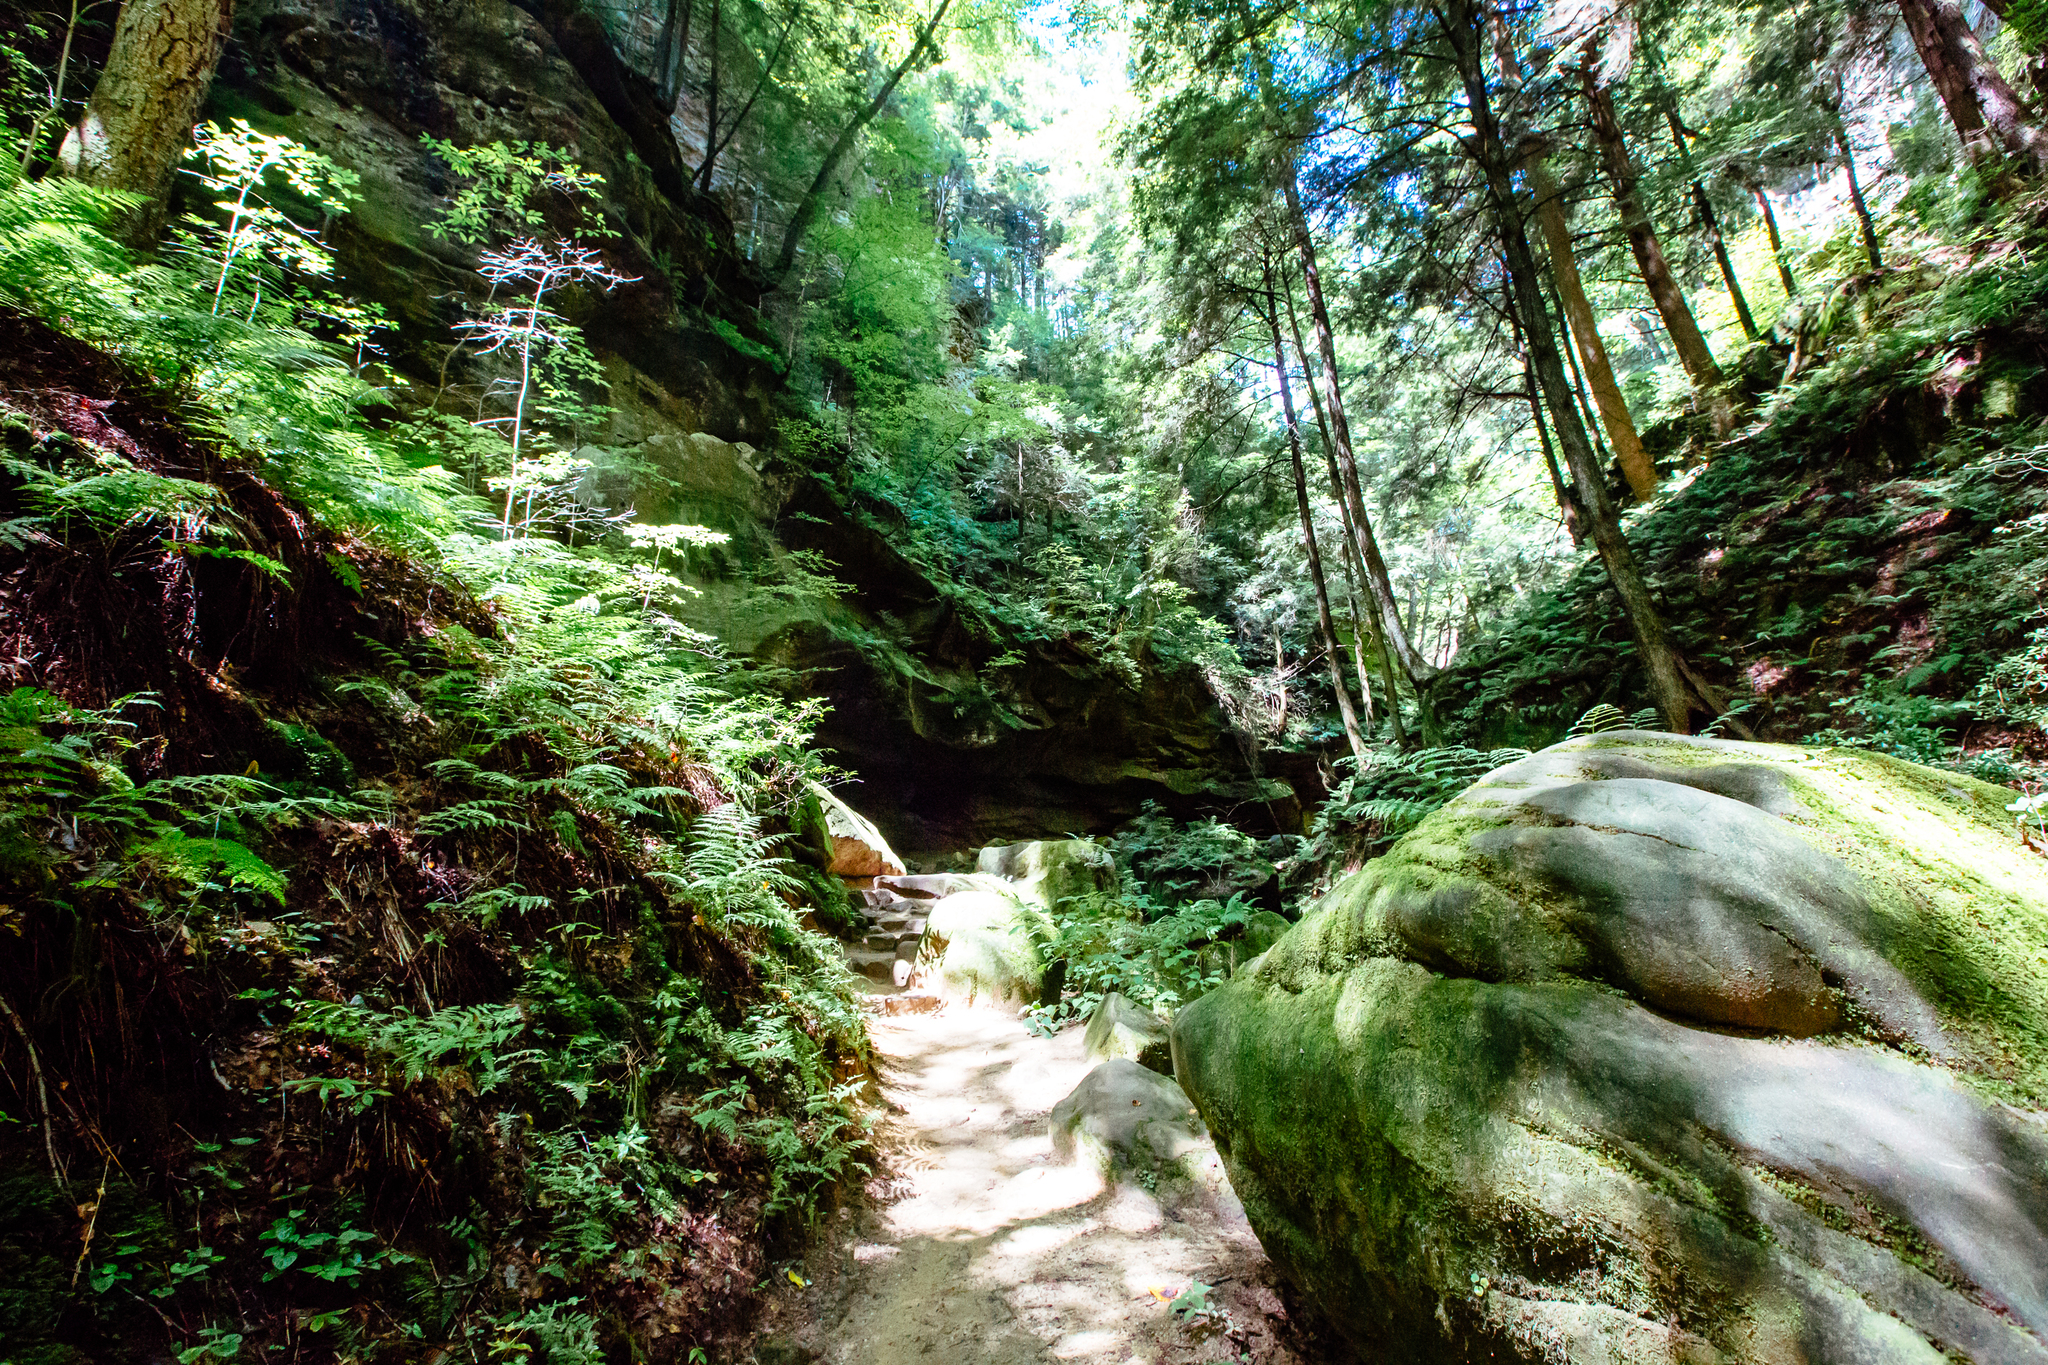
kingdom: Plantae
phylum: Tracheophyta
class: Pinopsida
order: Pinales
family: Pinaceae
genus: Tsuga
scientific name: Tsuga canadensis
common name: Eastern hemlock
